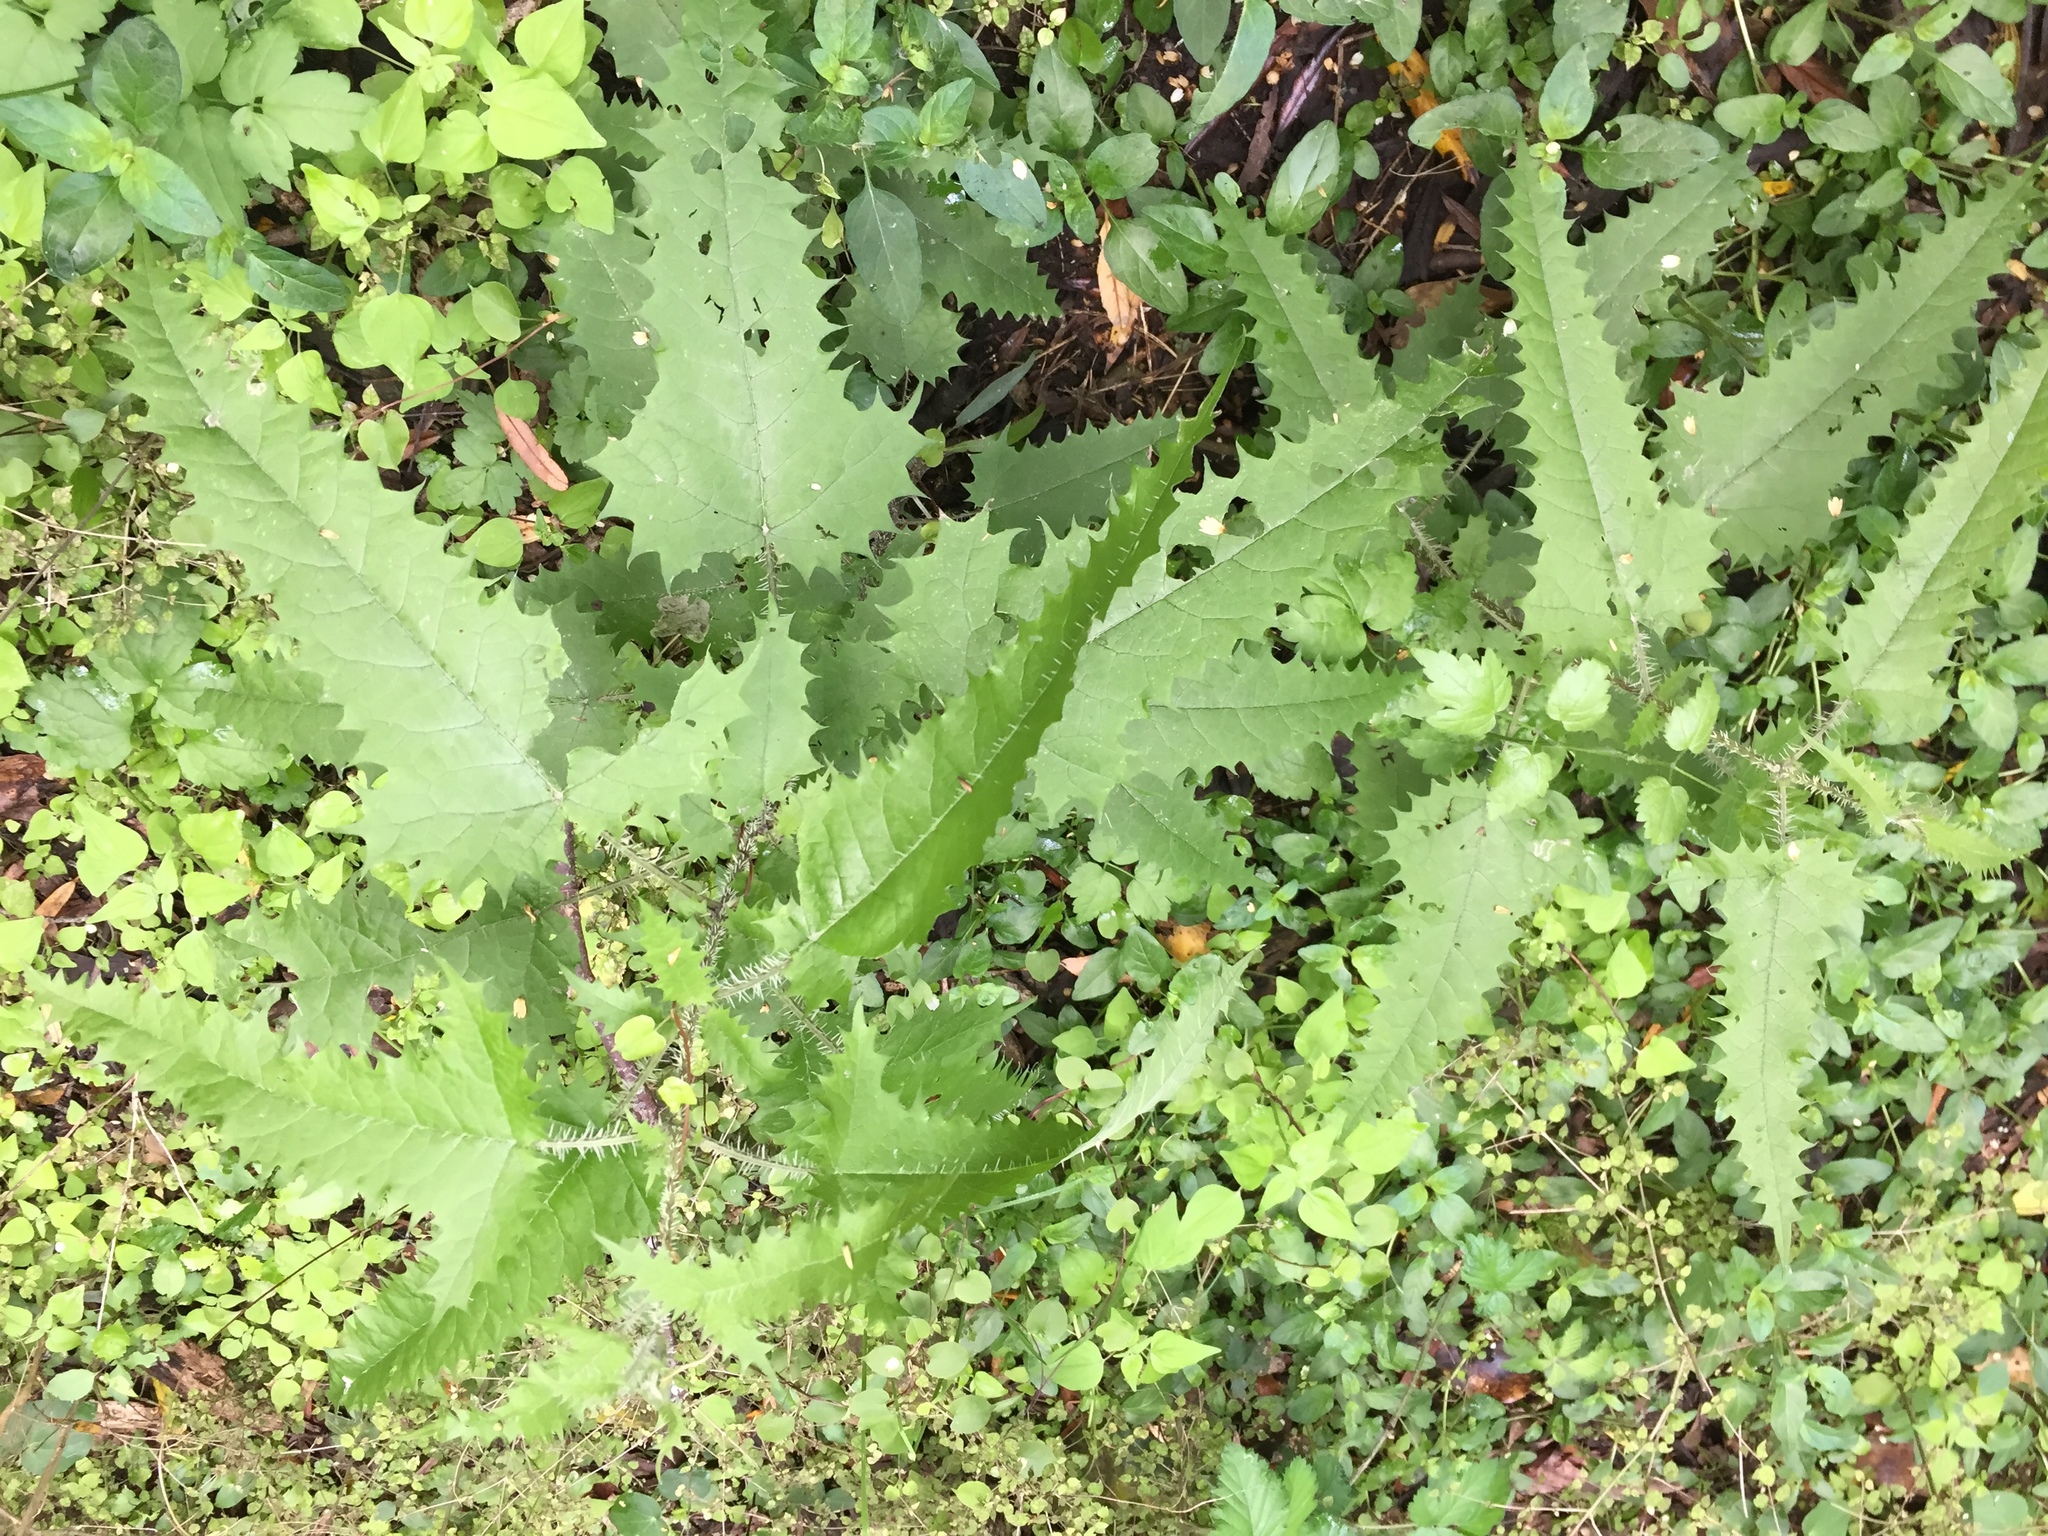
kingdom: Plantae
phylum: Tracheophyta
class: Magnoliopsida
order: Rosales
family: Urticaceae
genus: Urtica
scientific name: Urtica ferox
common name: Tree nettle
